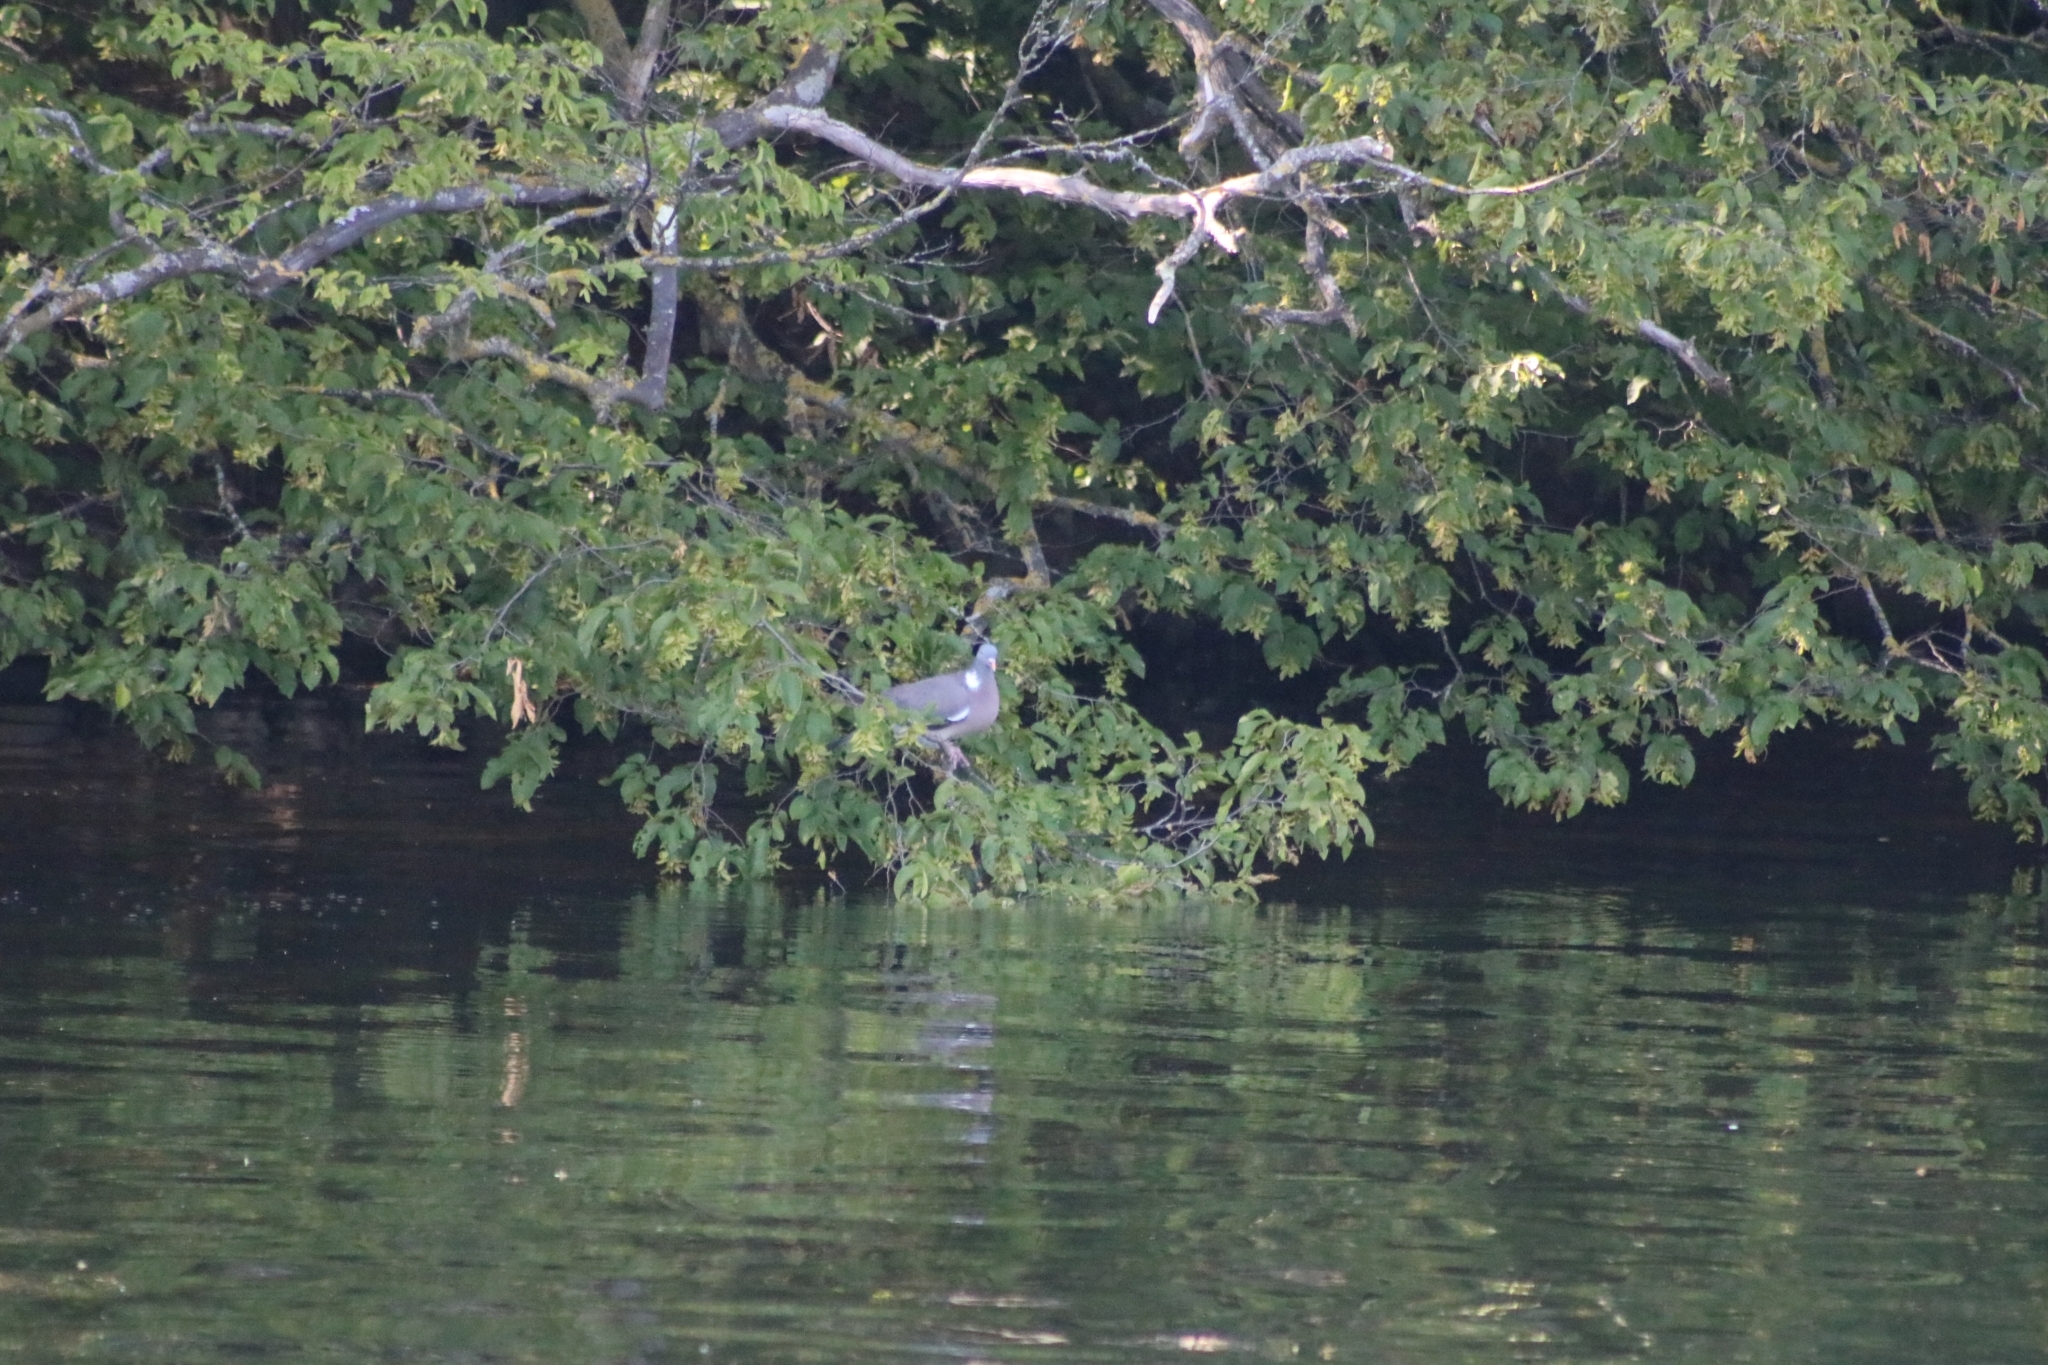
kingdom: Animalia
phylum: Chordata
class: Aves
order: Columbiformes
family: Columbidae
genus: Columba
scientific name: Columba palumbus
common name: Common wood pigeon
